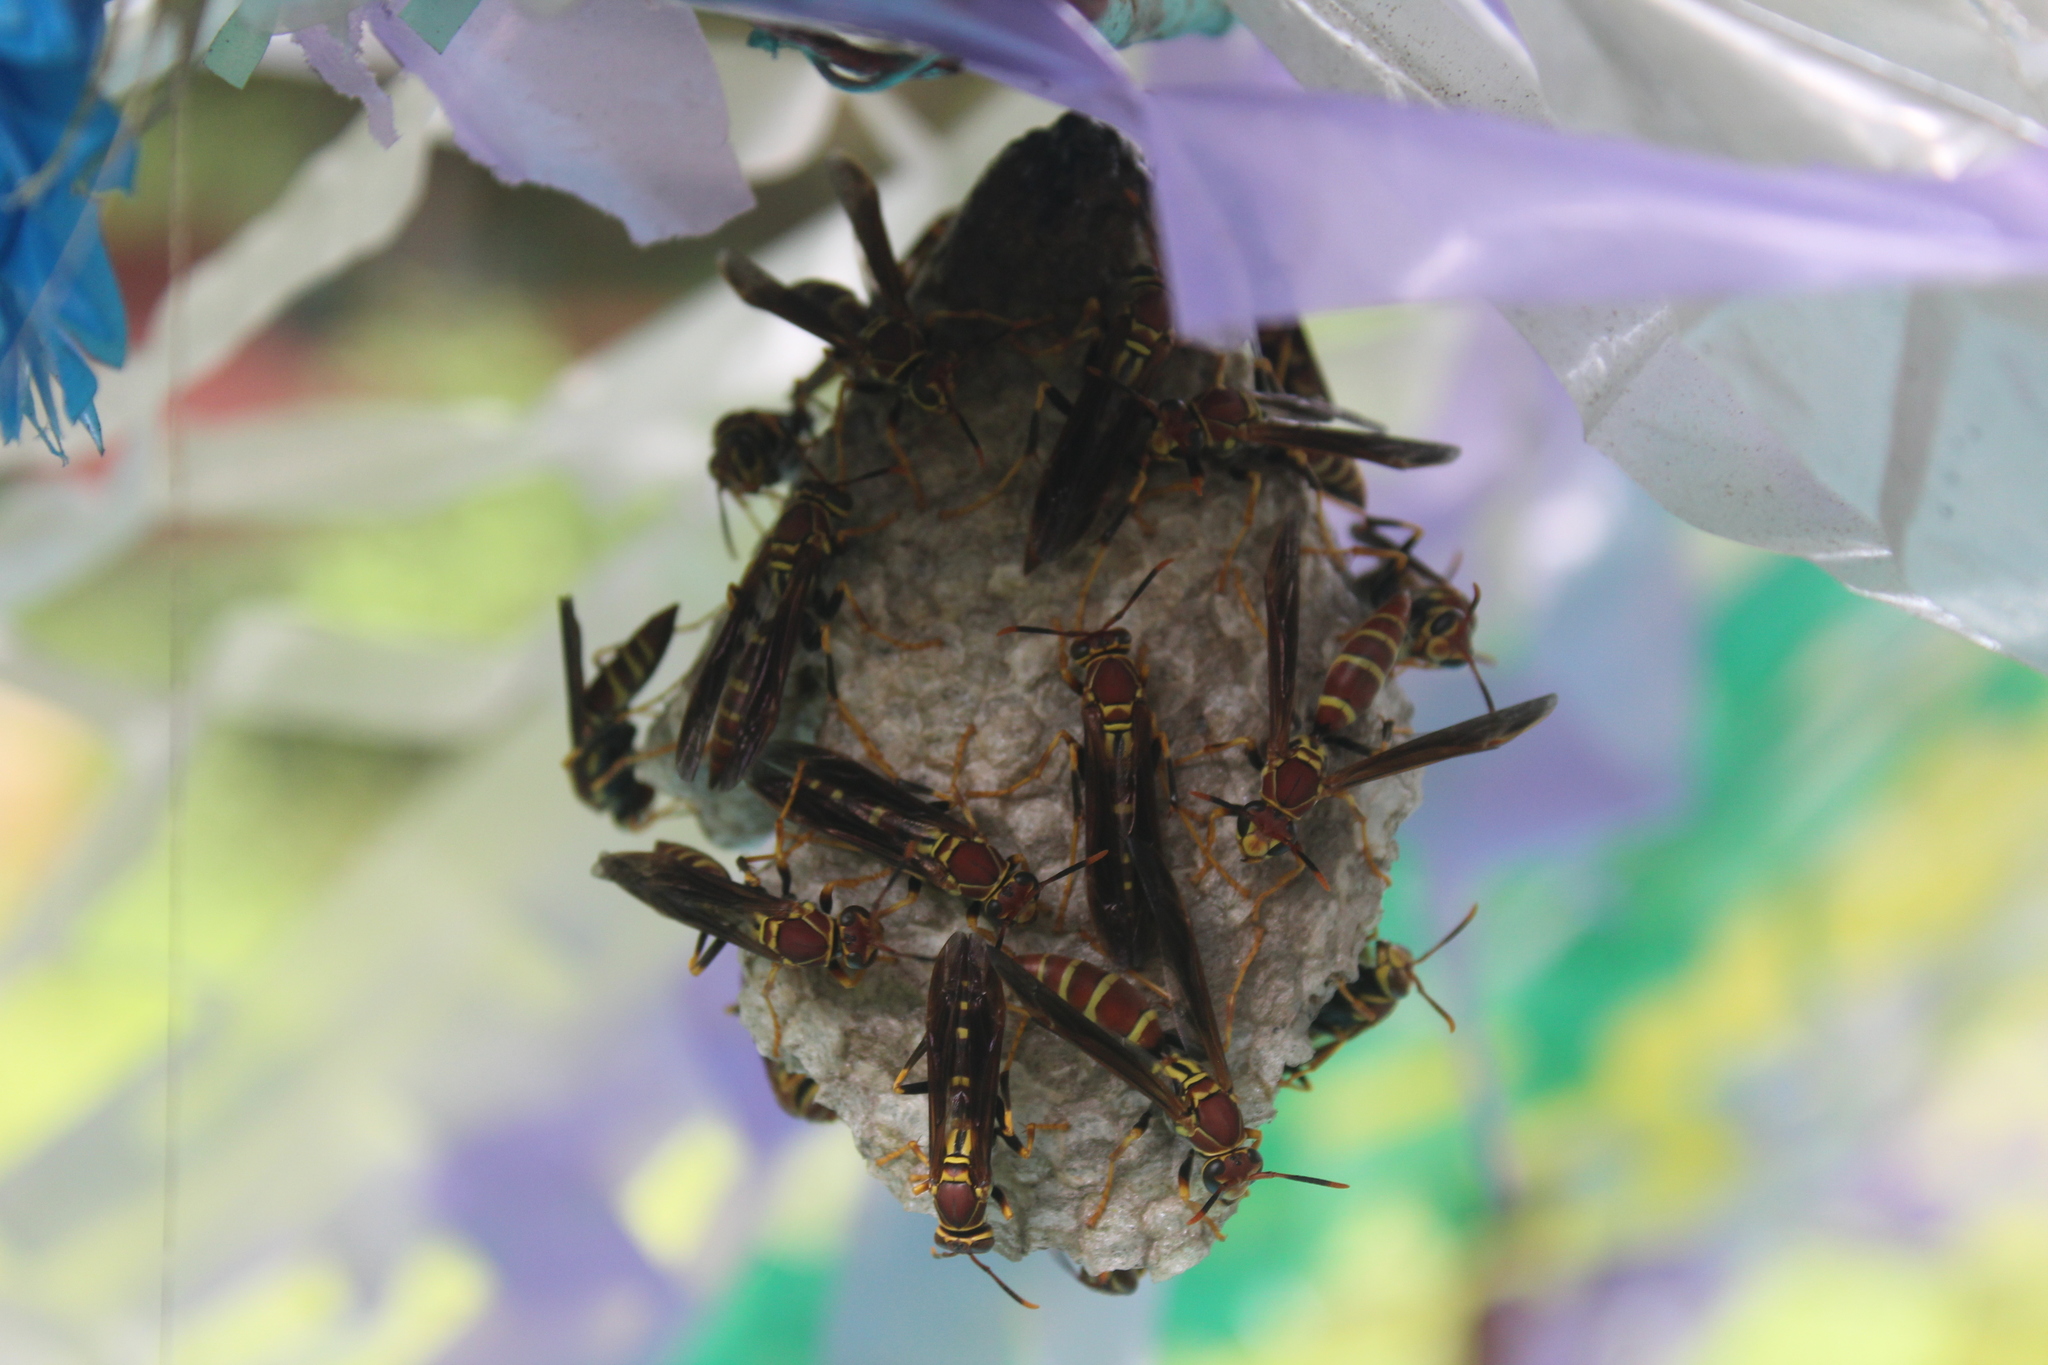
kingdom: Animalia
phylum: Arthropoda
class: Insecta
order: Hymenoptera
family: Eumenidae
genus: Polistes
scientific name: Polistes instabilis
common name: Unstable paper wasp
